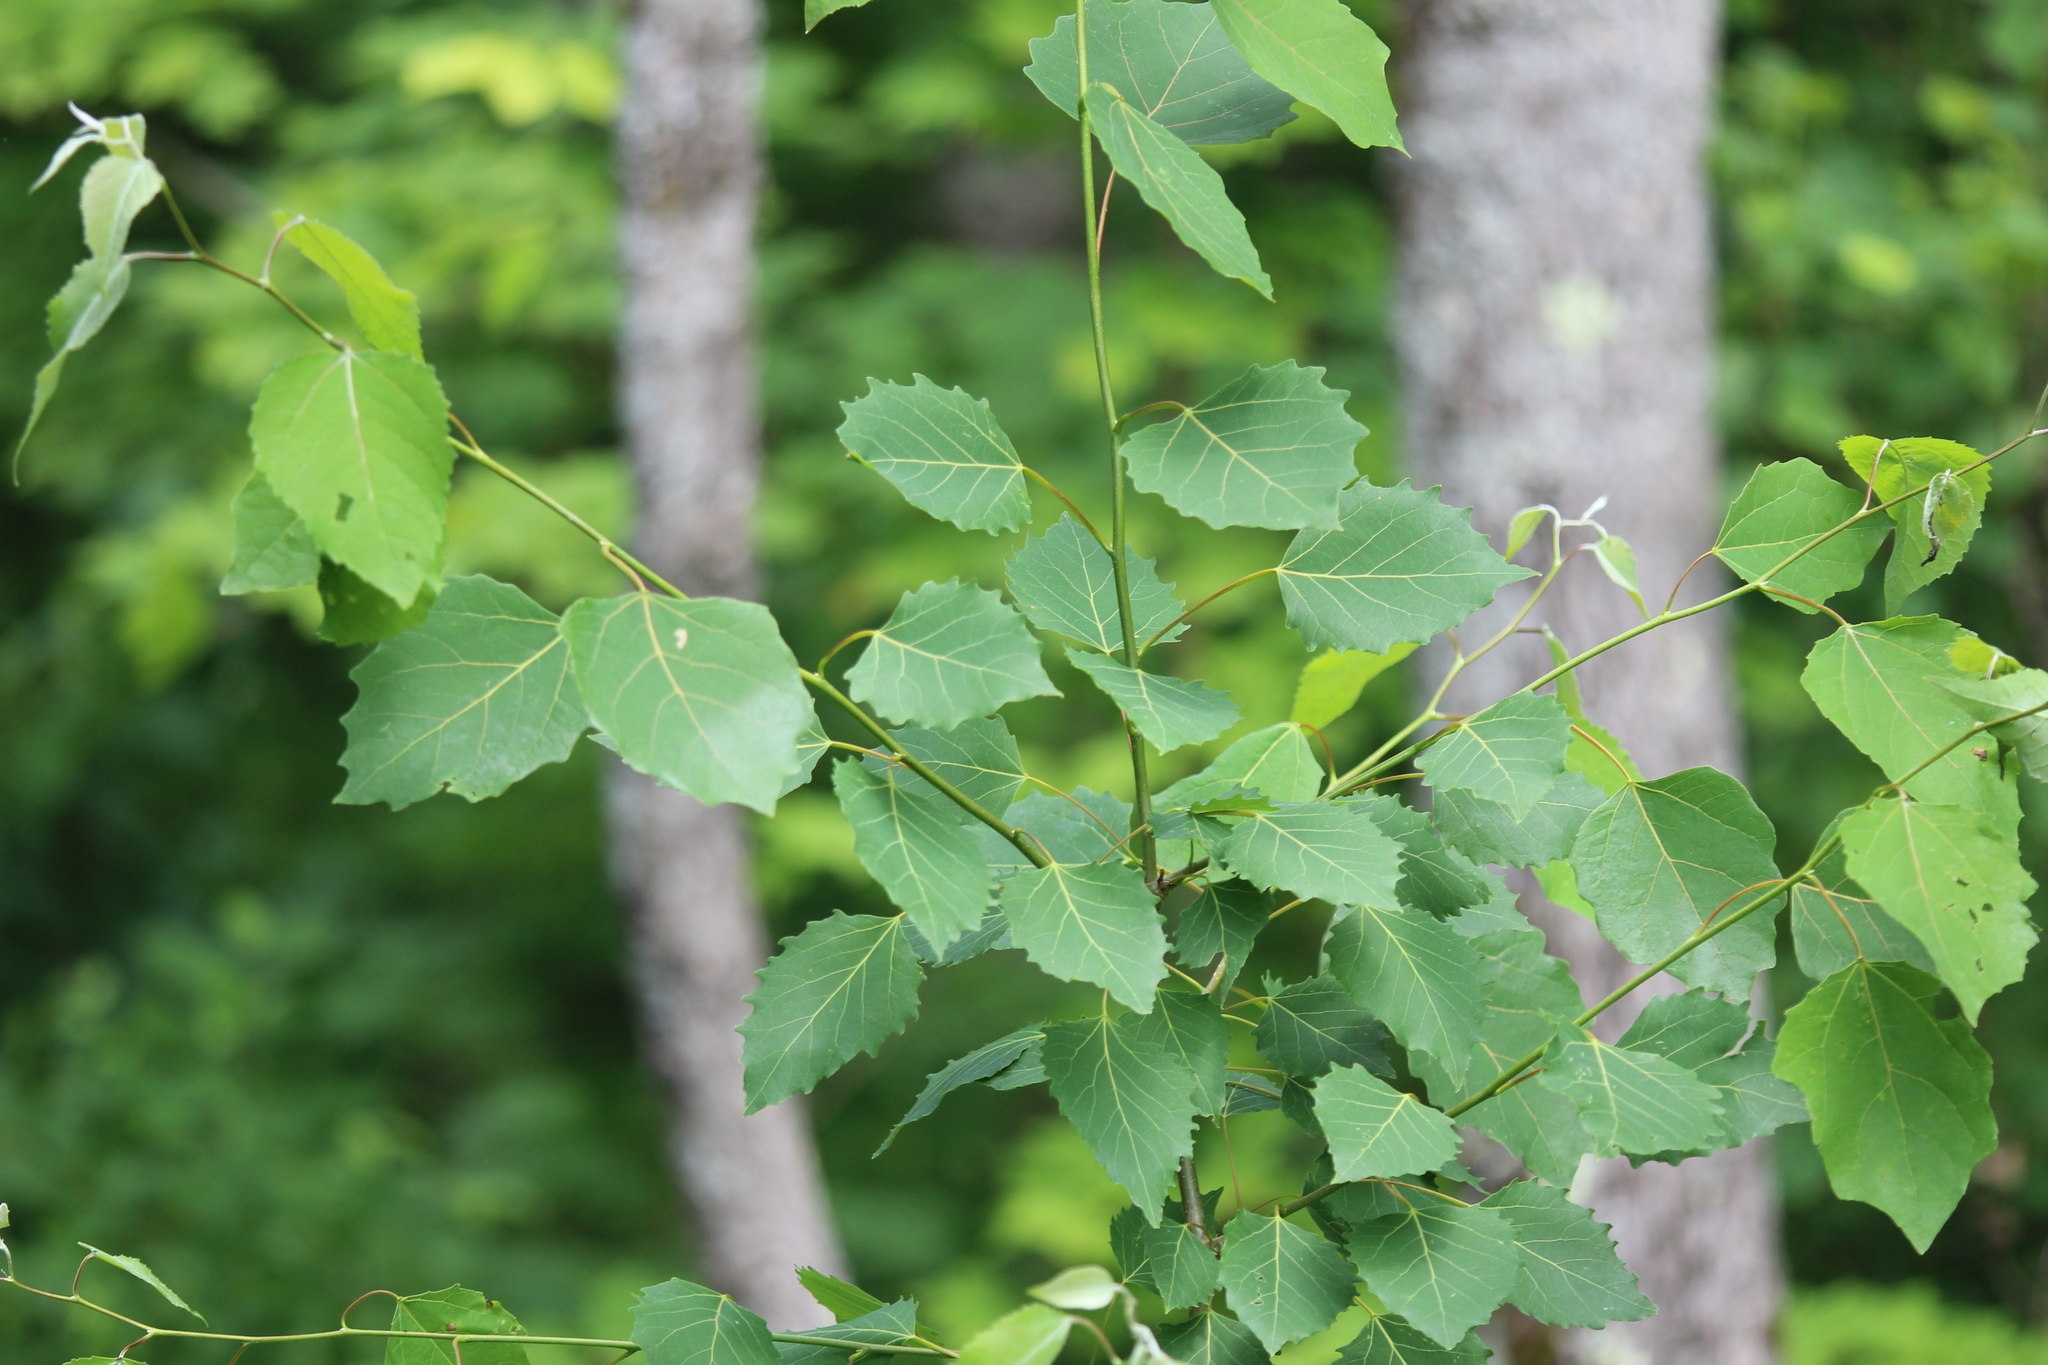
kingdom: Plantae
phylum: Tracheophyta
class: Magnoliopsida
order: Malpighiales
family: Salicaceae
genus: Populus
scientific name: Populus grandidentata
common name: Bigtooth aspen
